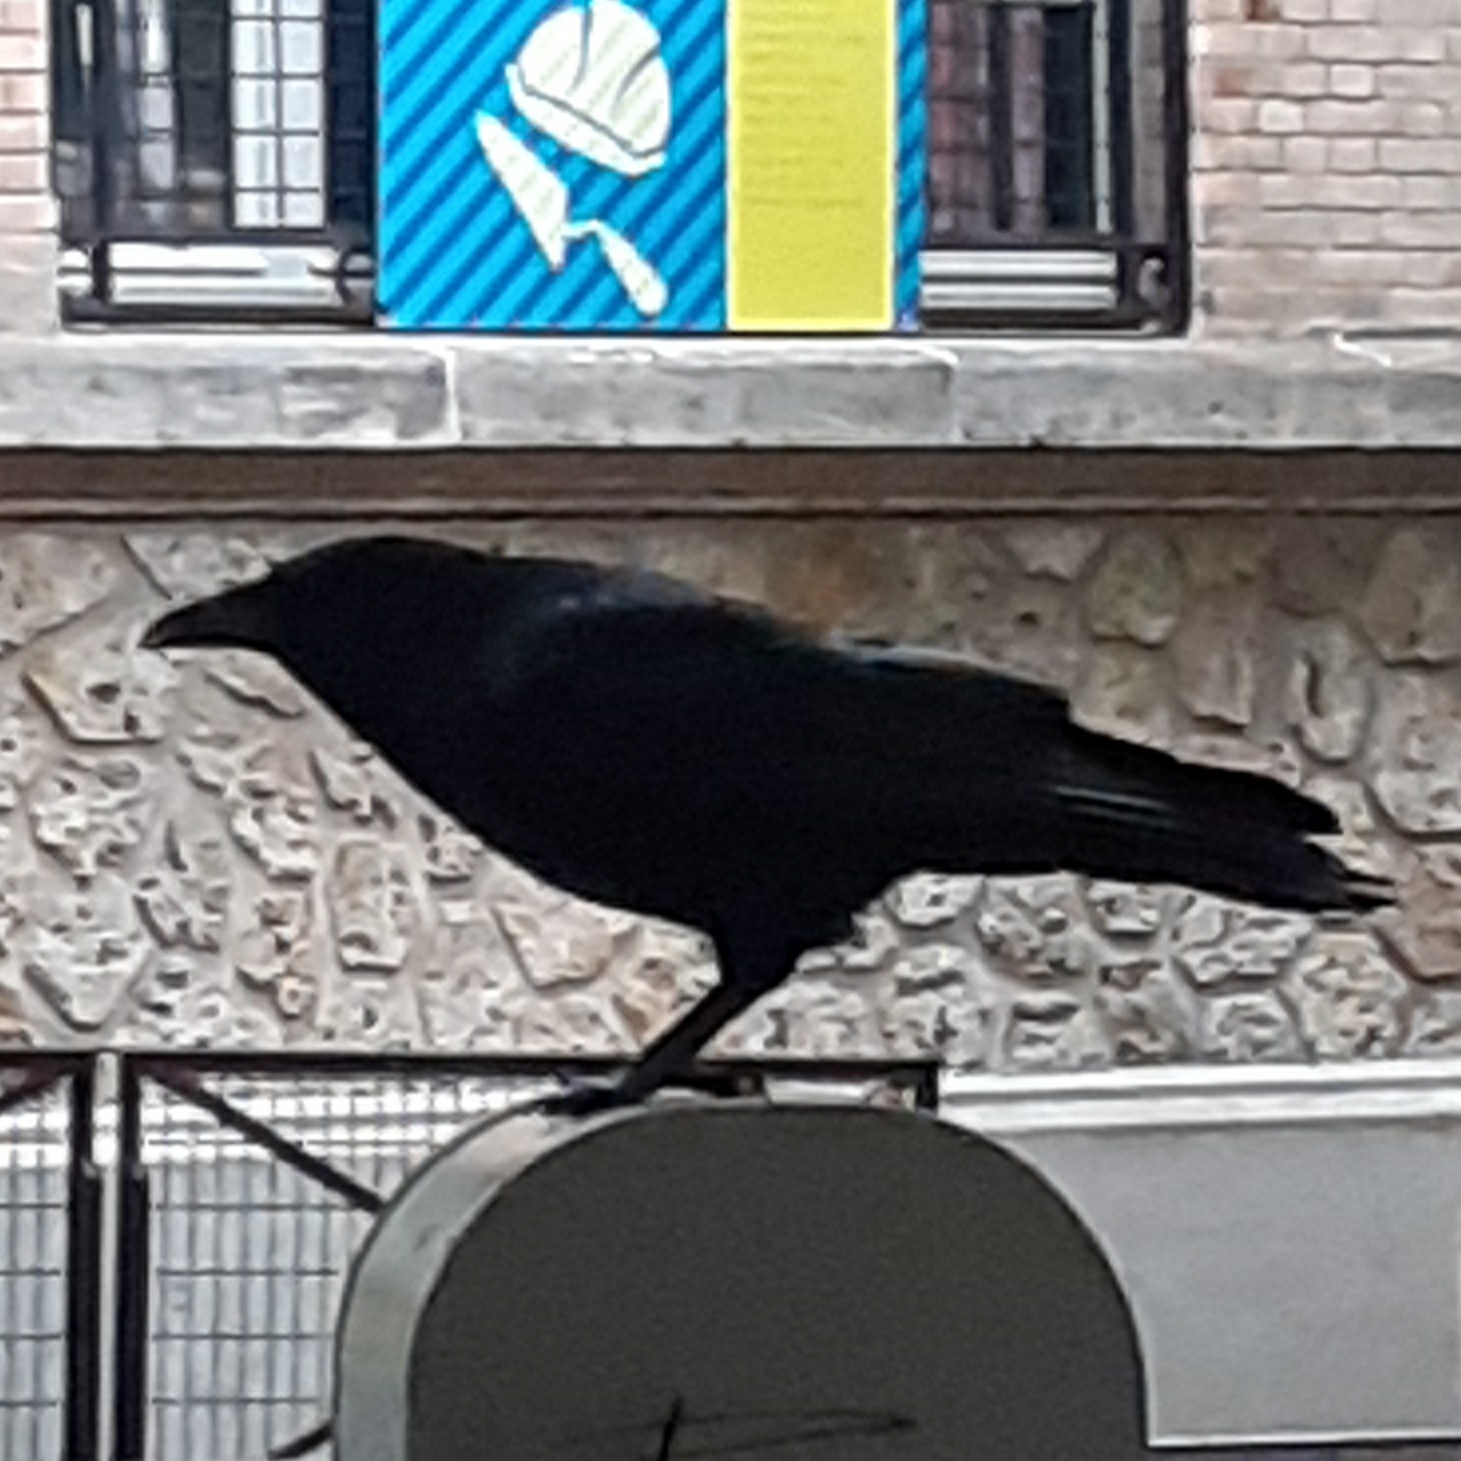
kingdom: Animalia
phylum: Chordata
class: Aves
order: Passeriformes
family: Corvidae
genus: Corvus
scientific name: Corvus corone
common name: Carrion crow
